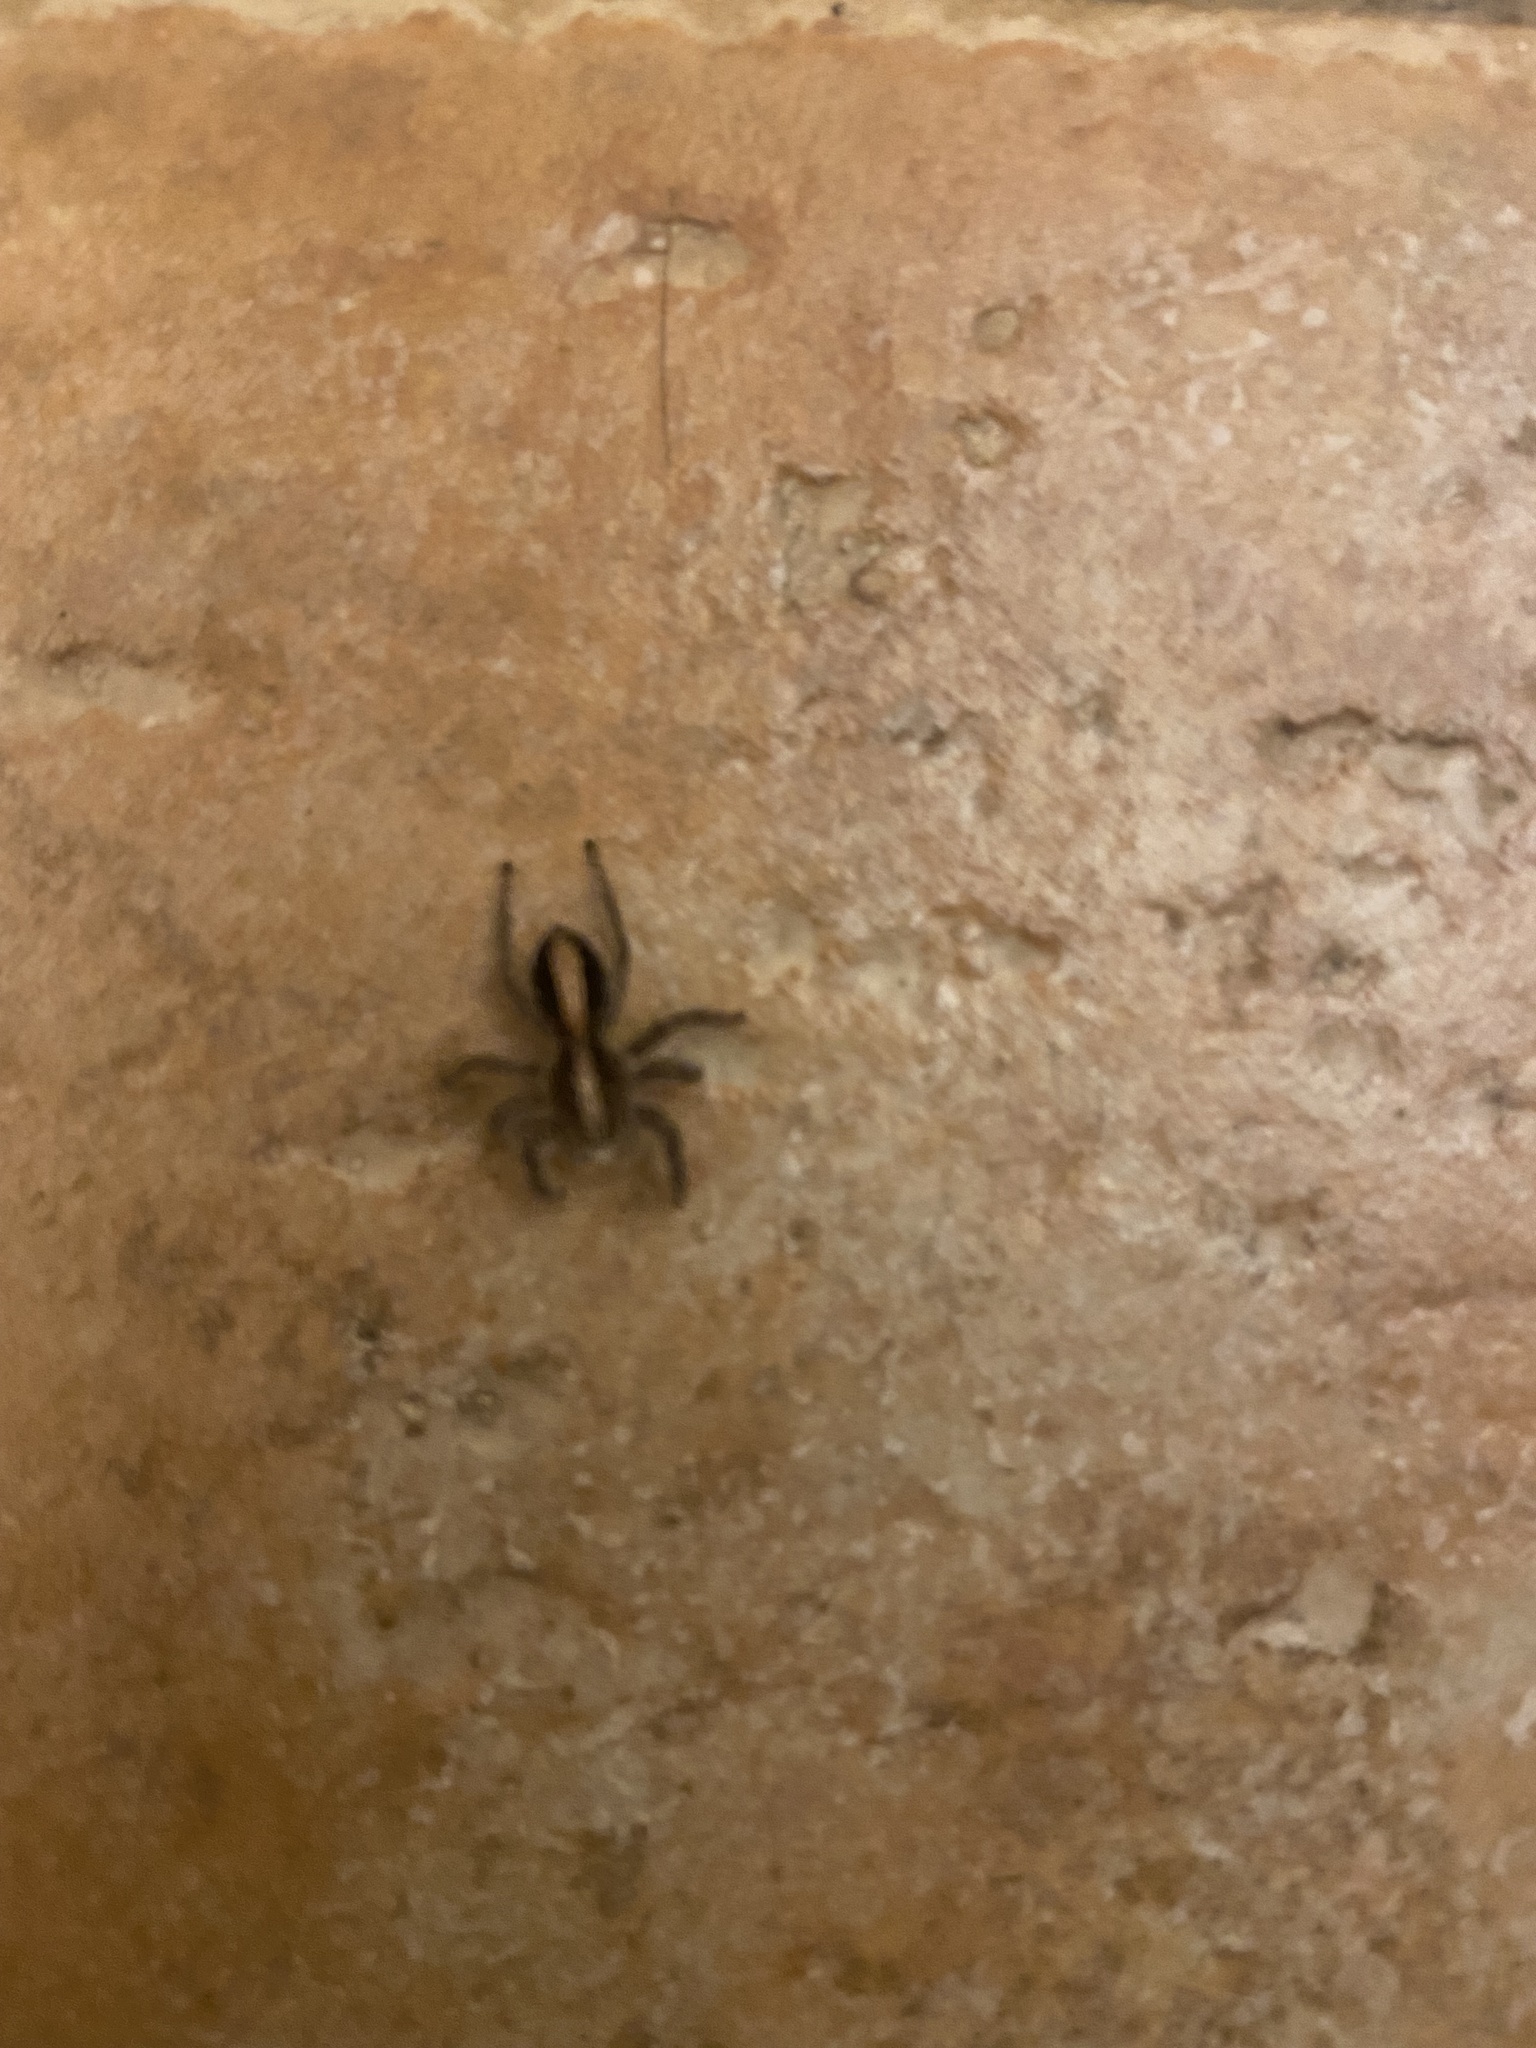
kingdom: Animalia
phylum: Arthropoda
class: Arachnida
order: Araneae
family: Salticidae
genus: Megafreya
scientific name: Megafreya sutrix
